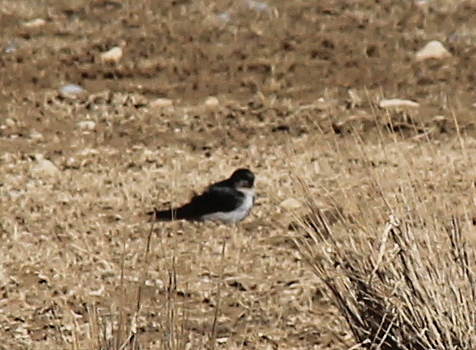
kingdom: Animalia
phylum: Chordata
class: Aves
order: Passeriformes
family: Hirundinidae
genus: Haplochelidon
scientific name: Haplochelidon andecola
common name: Andean swallow
